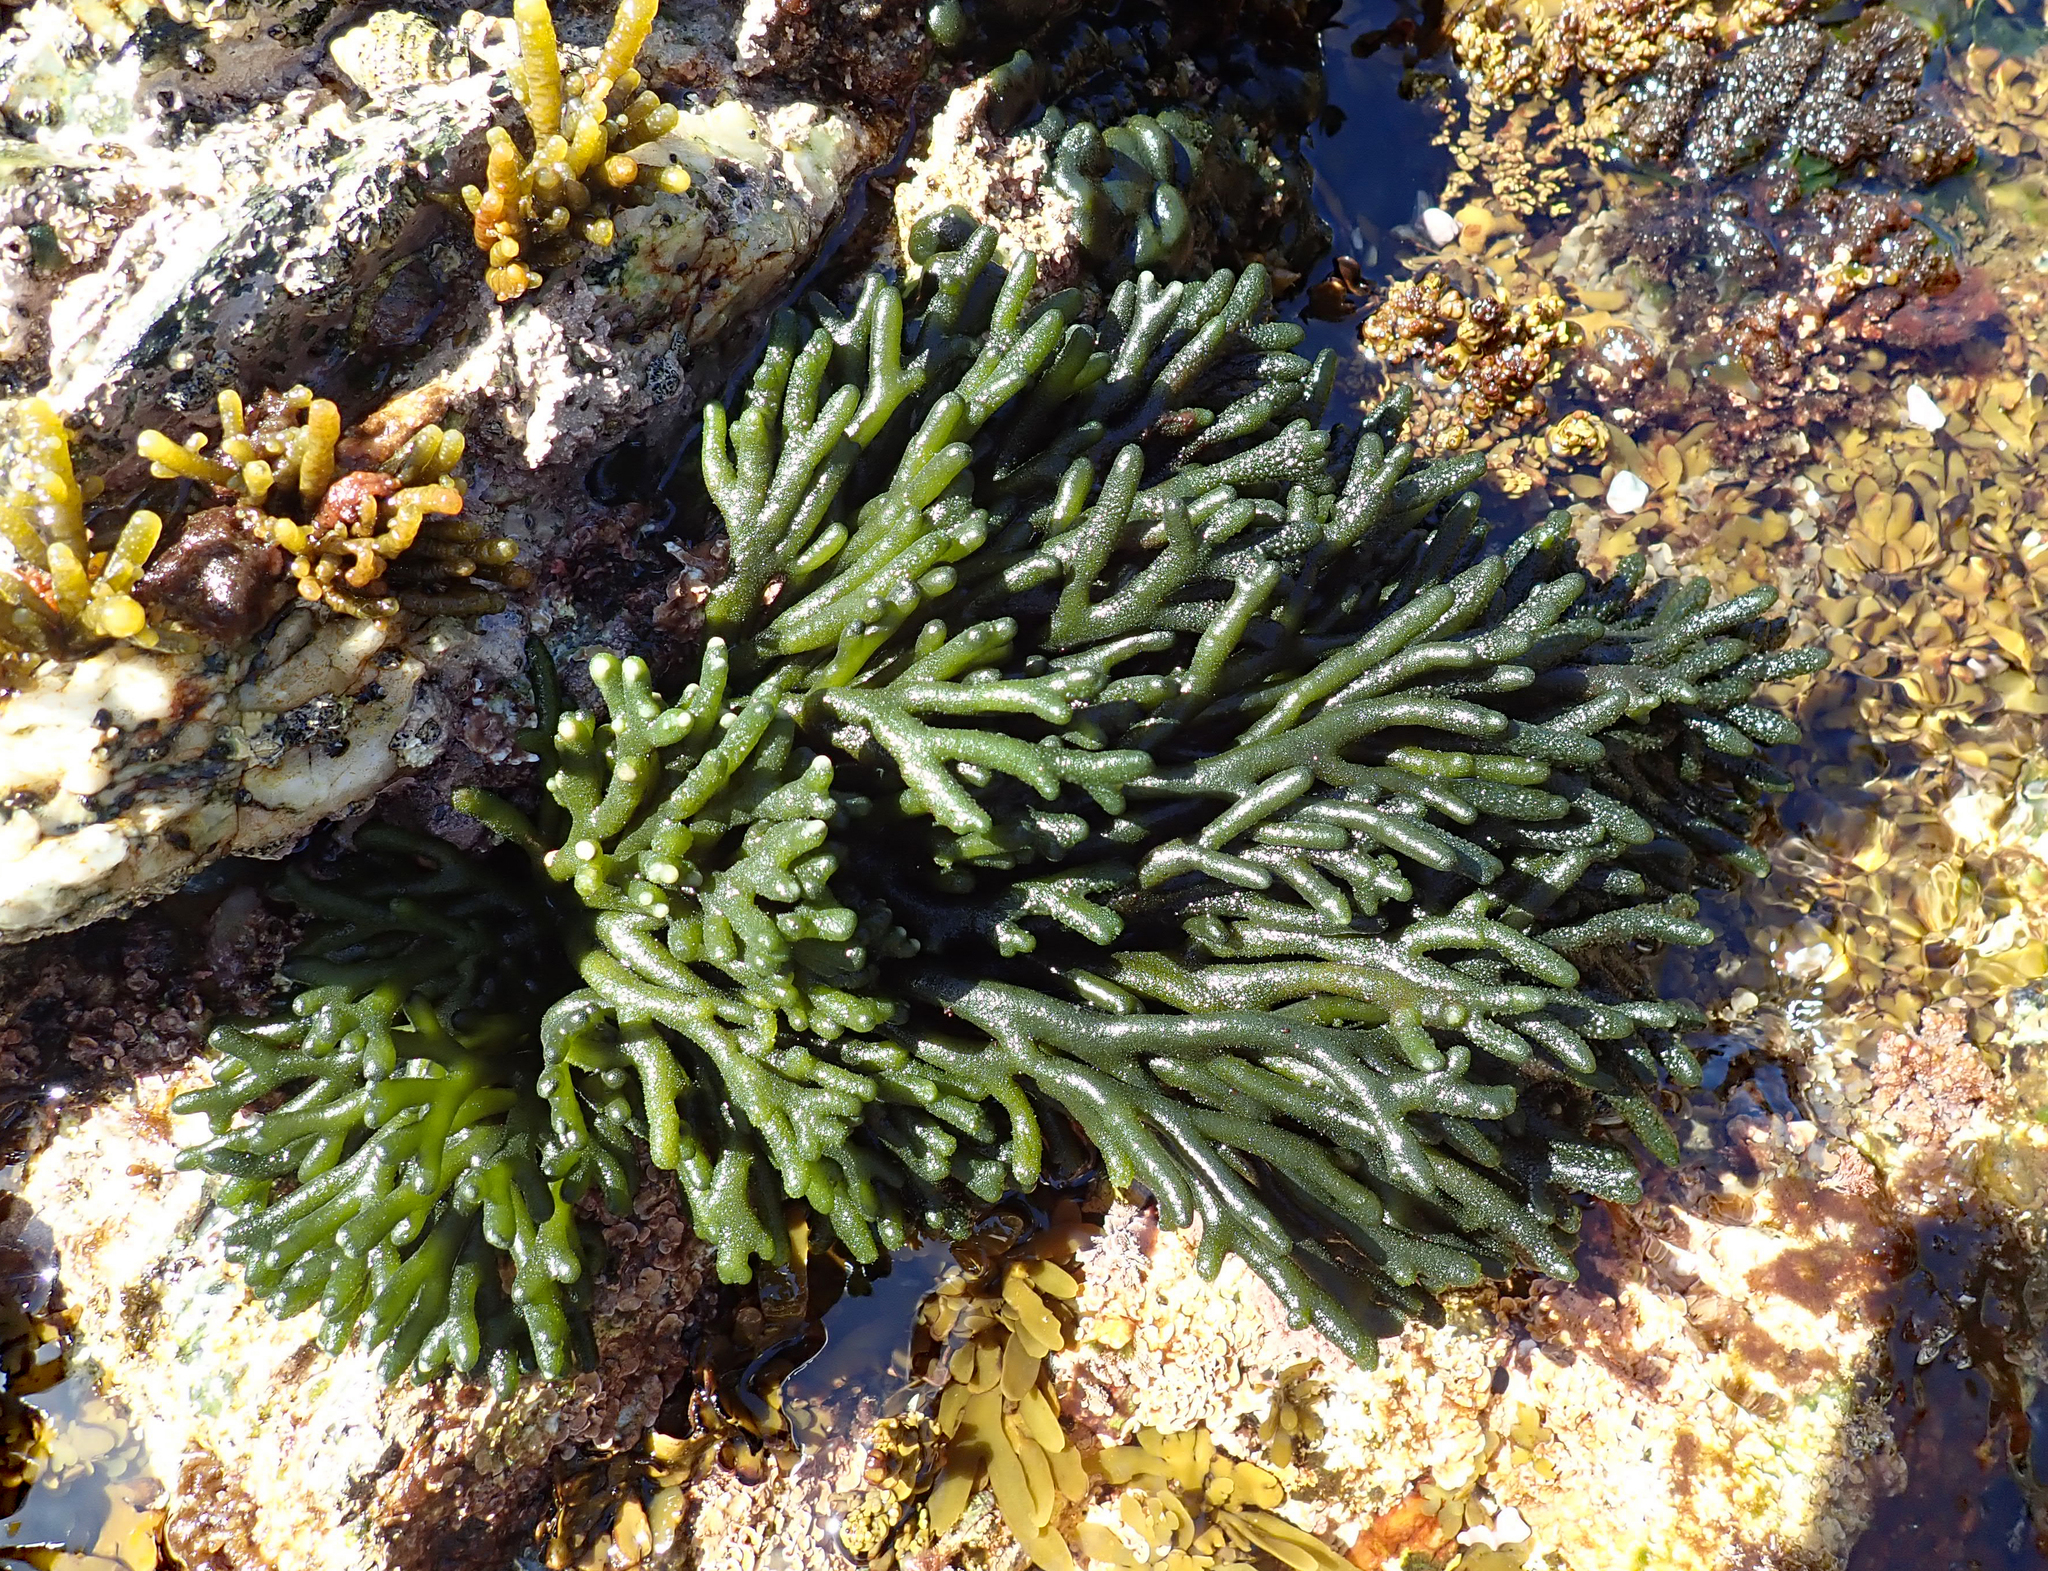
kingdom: Plantae
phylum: Chlorophyta
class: Ulvophyceae
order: Bryopsidales
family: Codiaceae
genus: Codium
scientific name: Codium fragile
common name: Dead man's fingers
